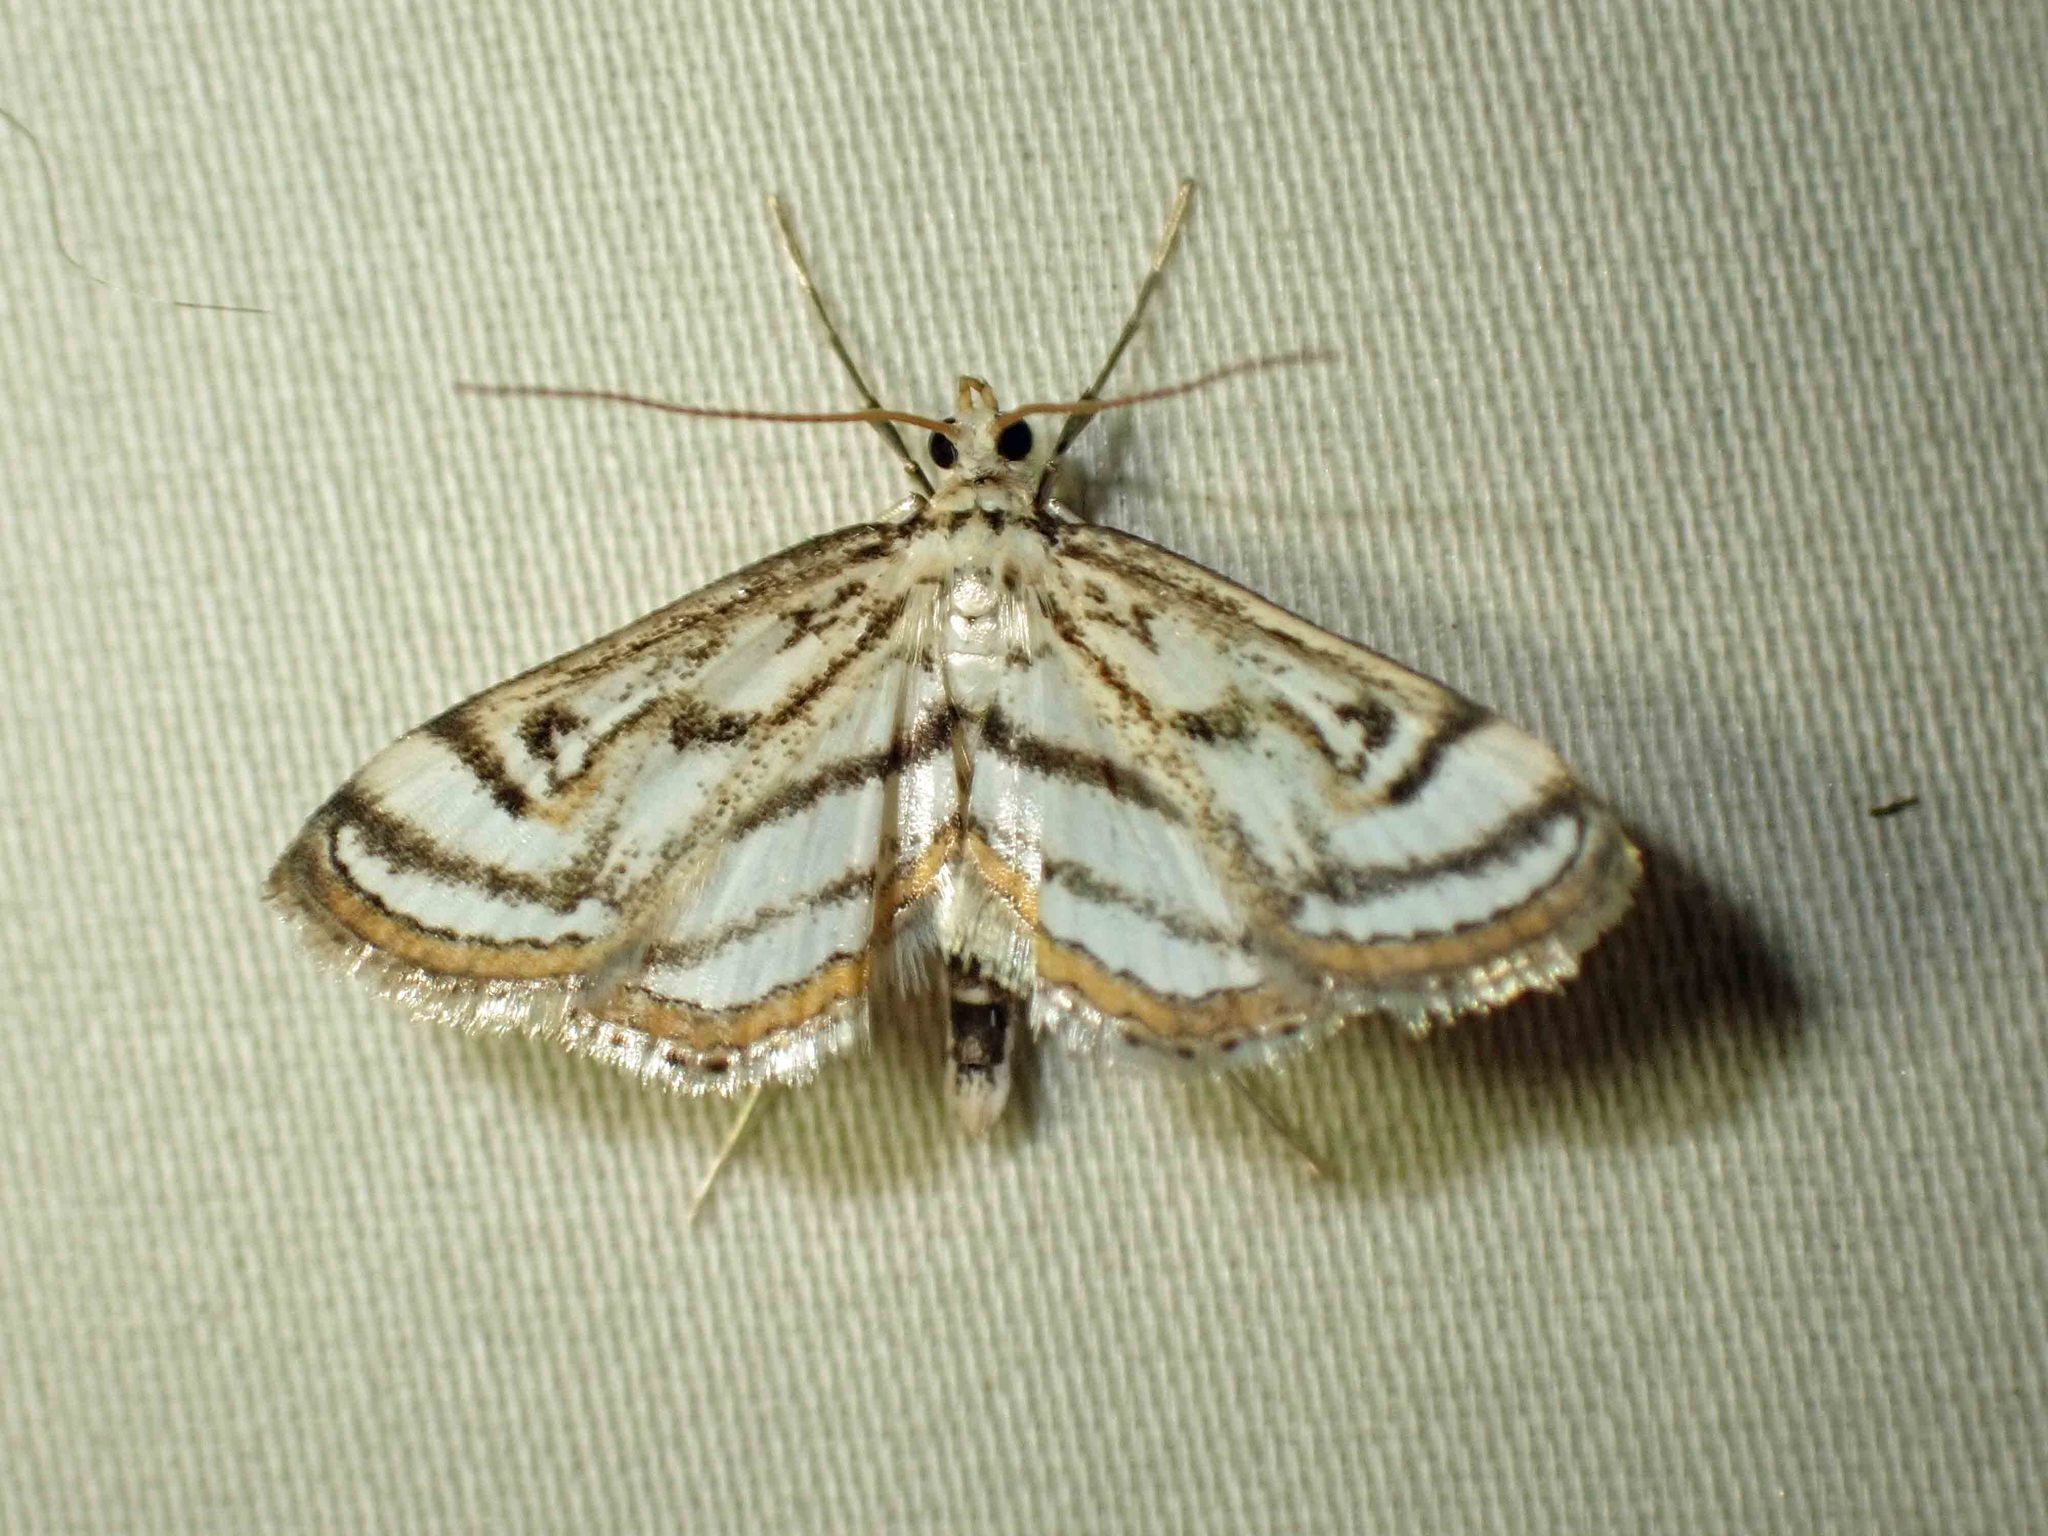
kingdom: Animalia
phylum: Arthropoda
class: Insecta
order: Lepidoptera
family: Crambidae
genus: Parapoynx
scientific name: Parapoynx badiusalis
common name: Chestnut-marked pondweed moth
